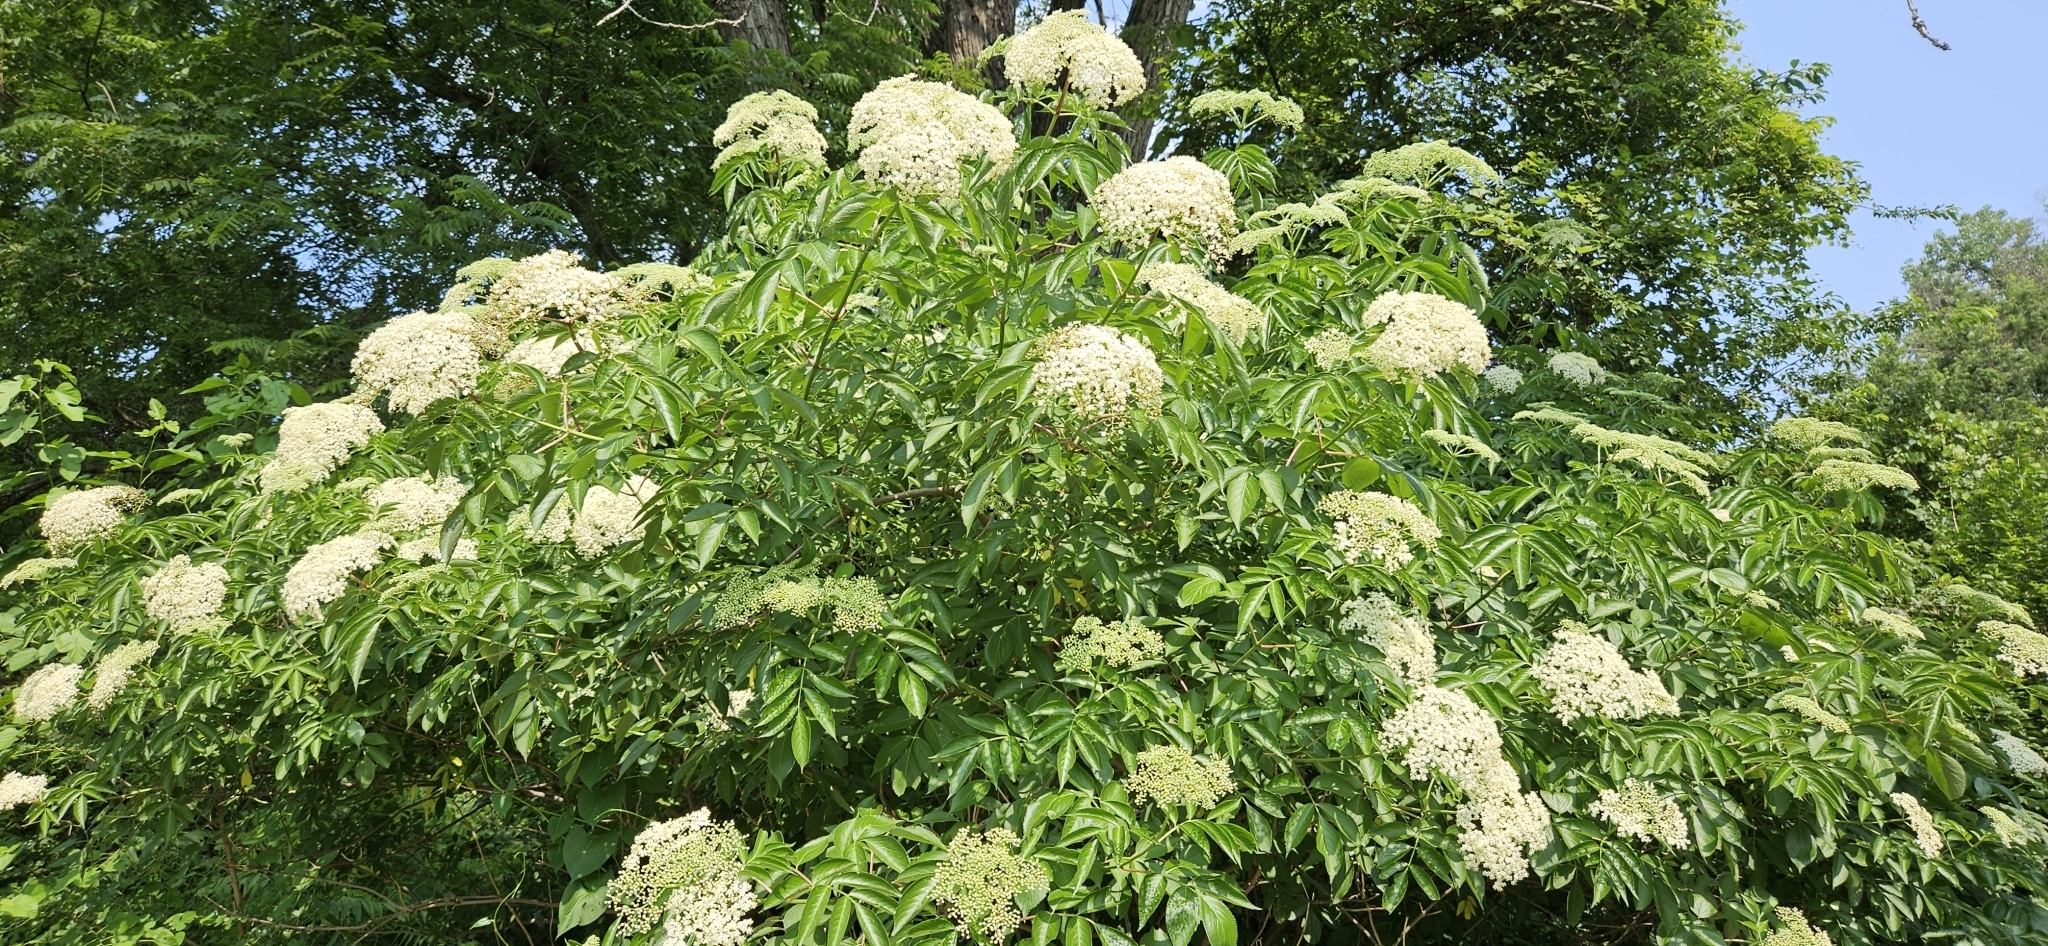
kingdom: Plantae
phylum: Tracheophyta
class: Magnoliopsida
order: Dipsacales
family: Viburnaceae
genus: Sambucus
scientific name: Sambucus canadensis
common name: American elder
